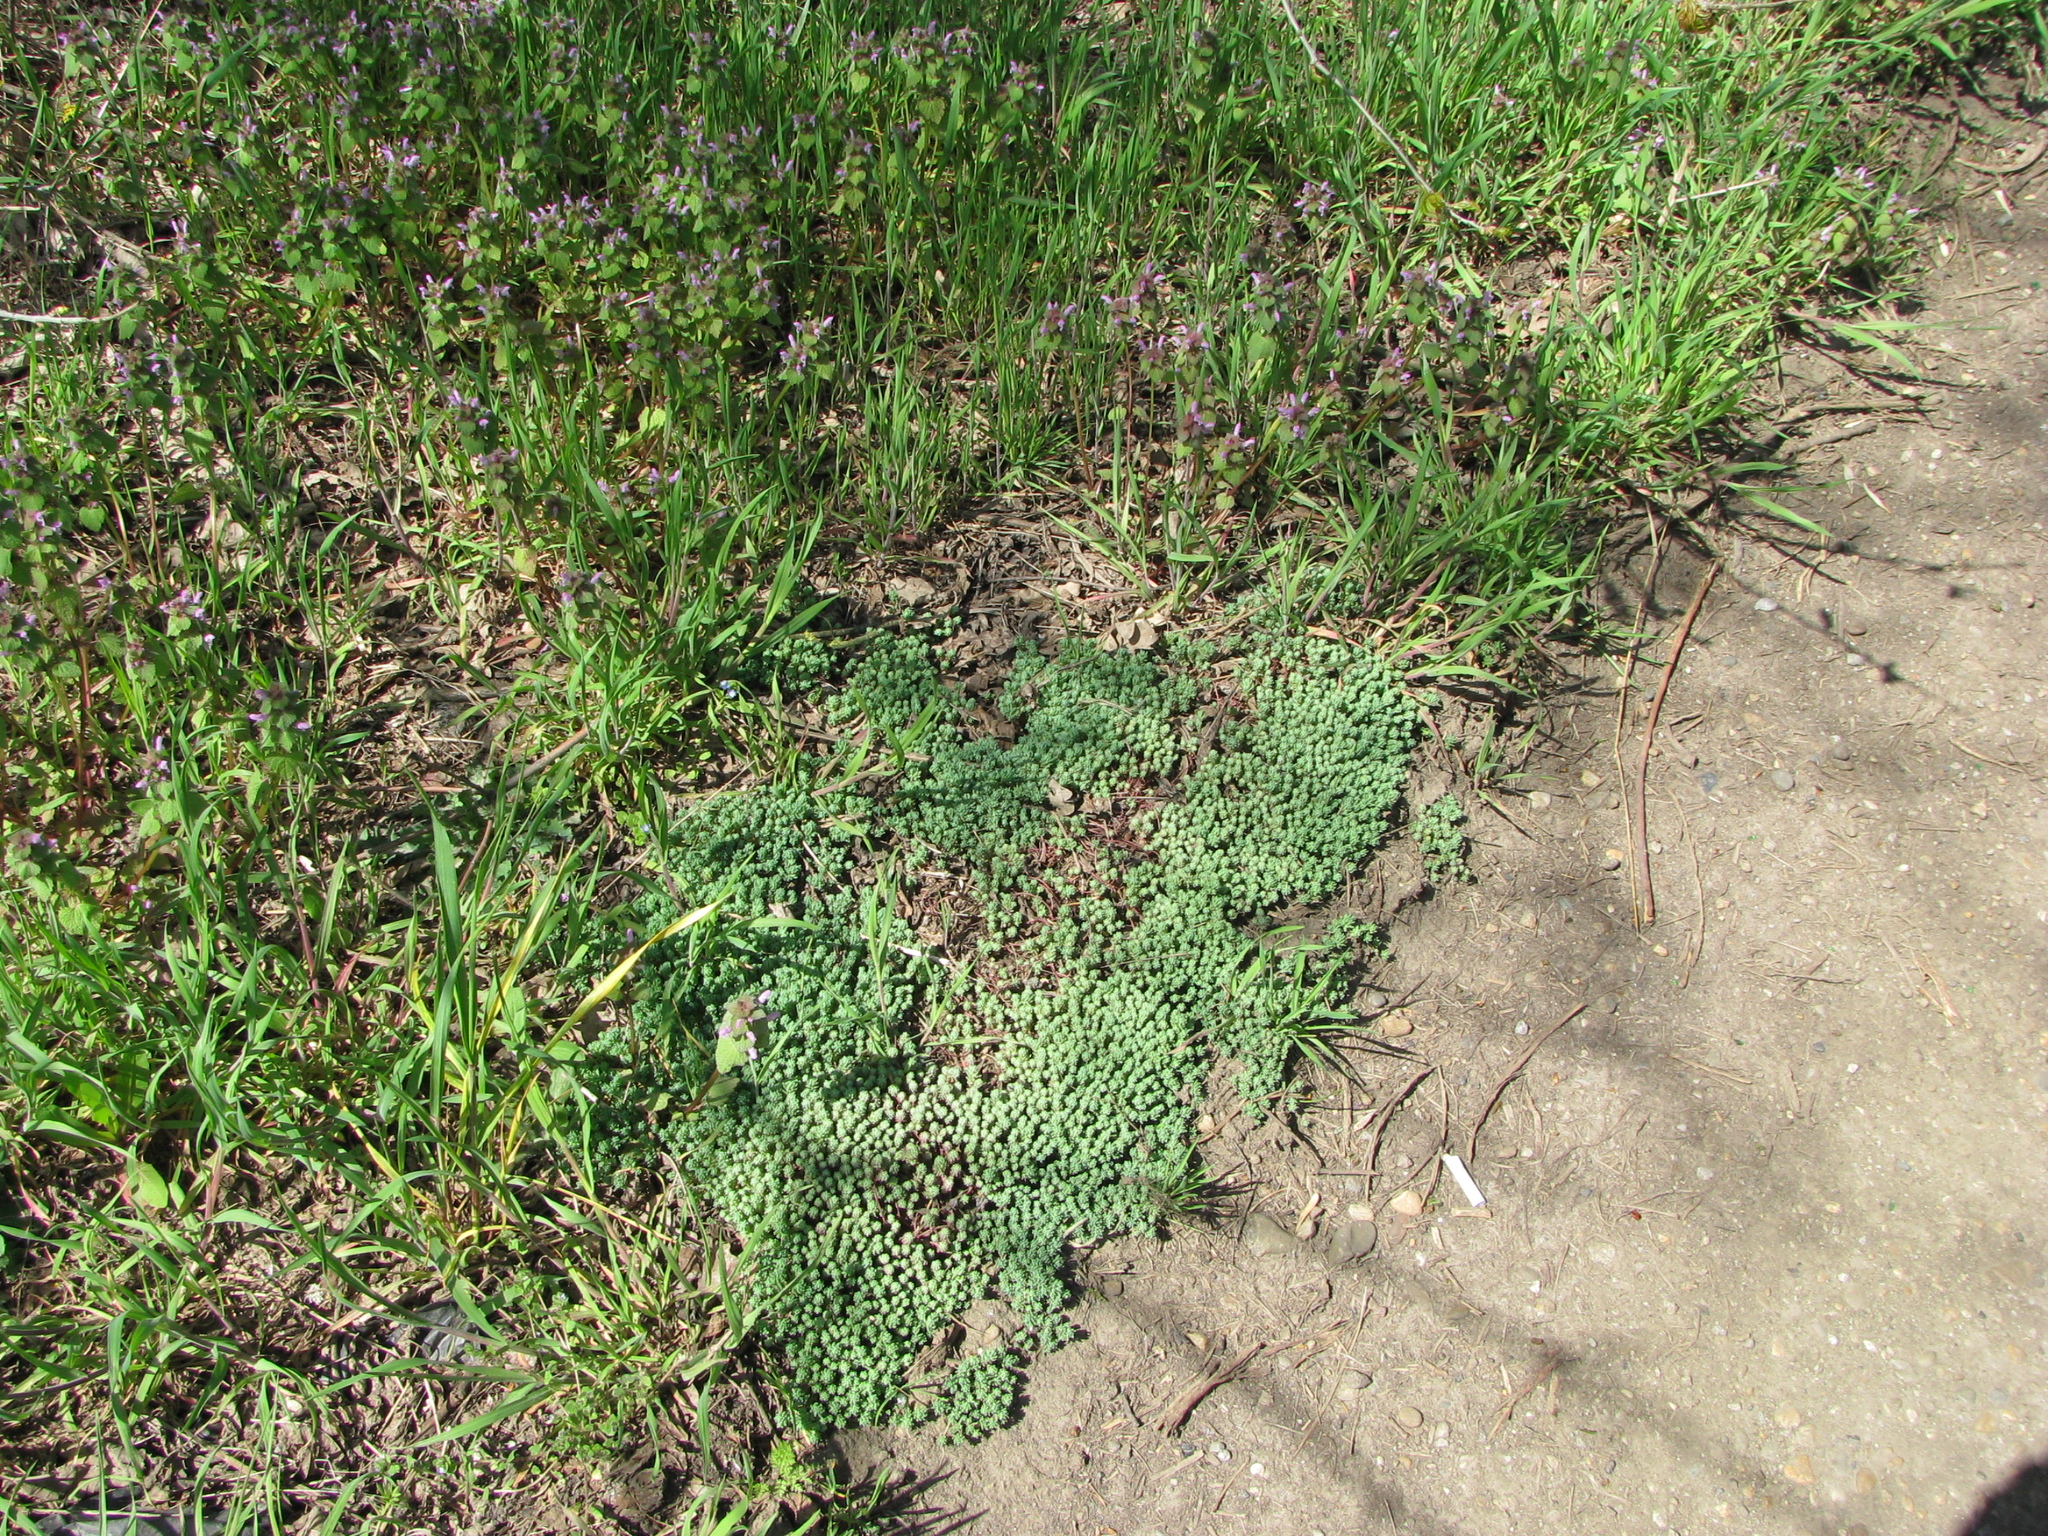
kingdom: Plantae
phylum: Tracheophyta
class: Magnoliopsida
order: Saxifragales
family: Crassulaceae
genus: Sedum
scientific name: Sedum pallidum
